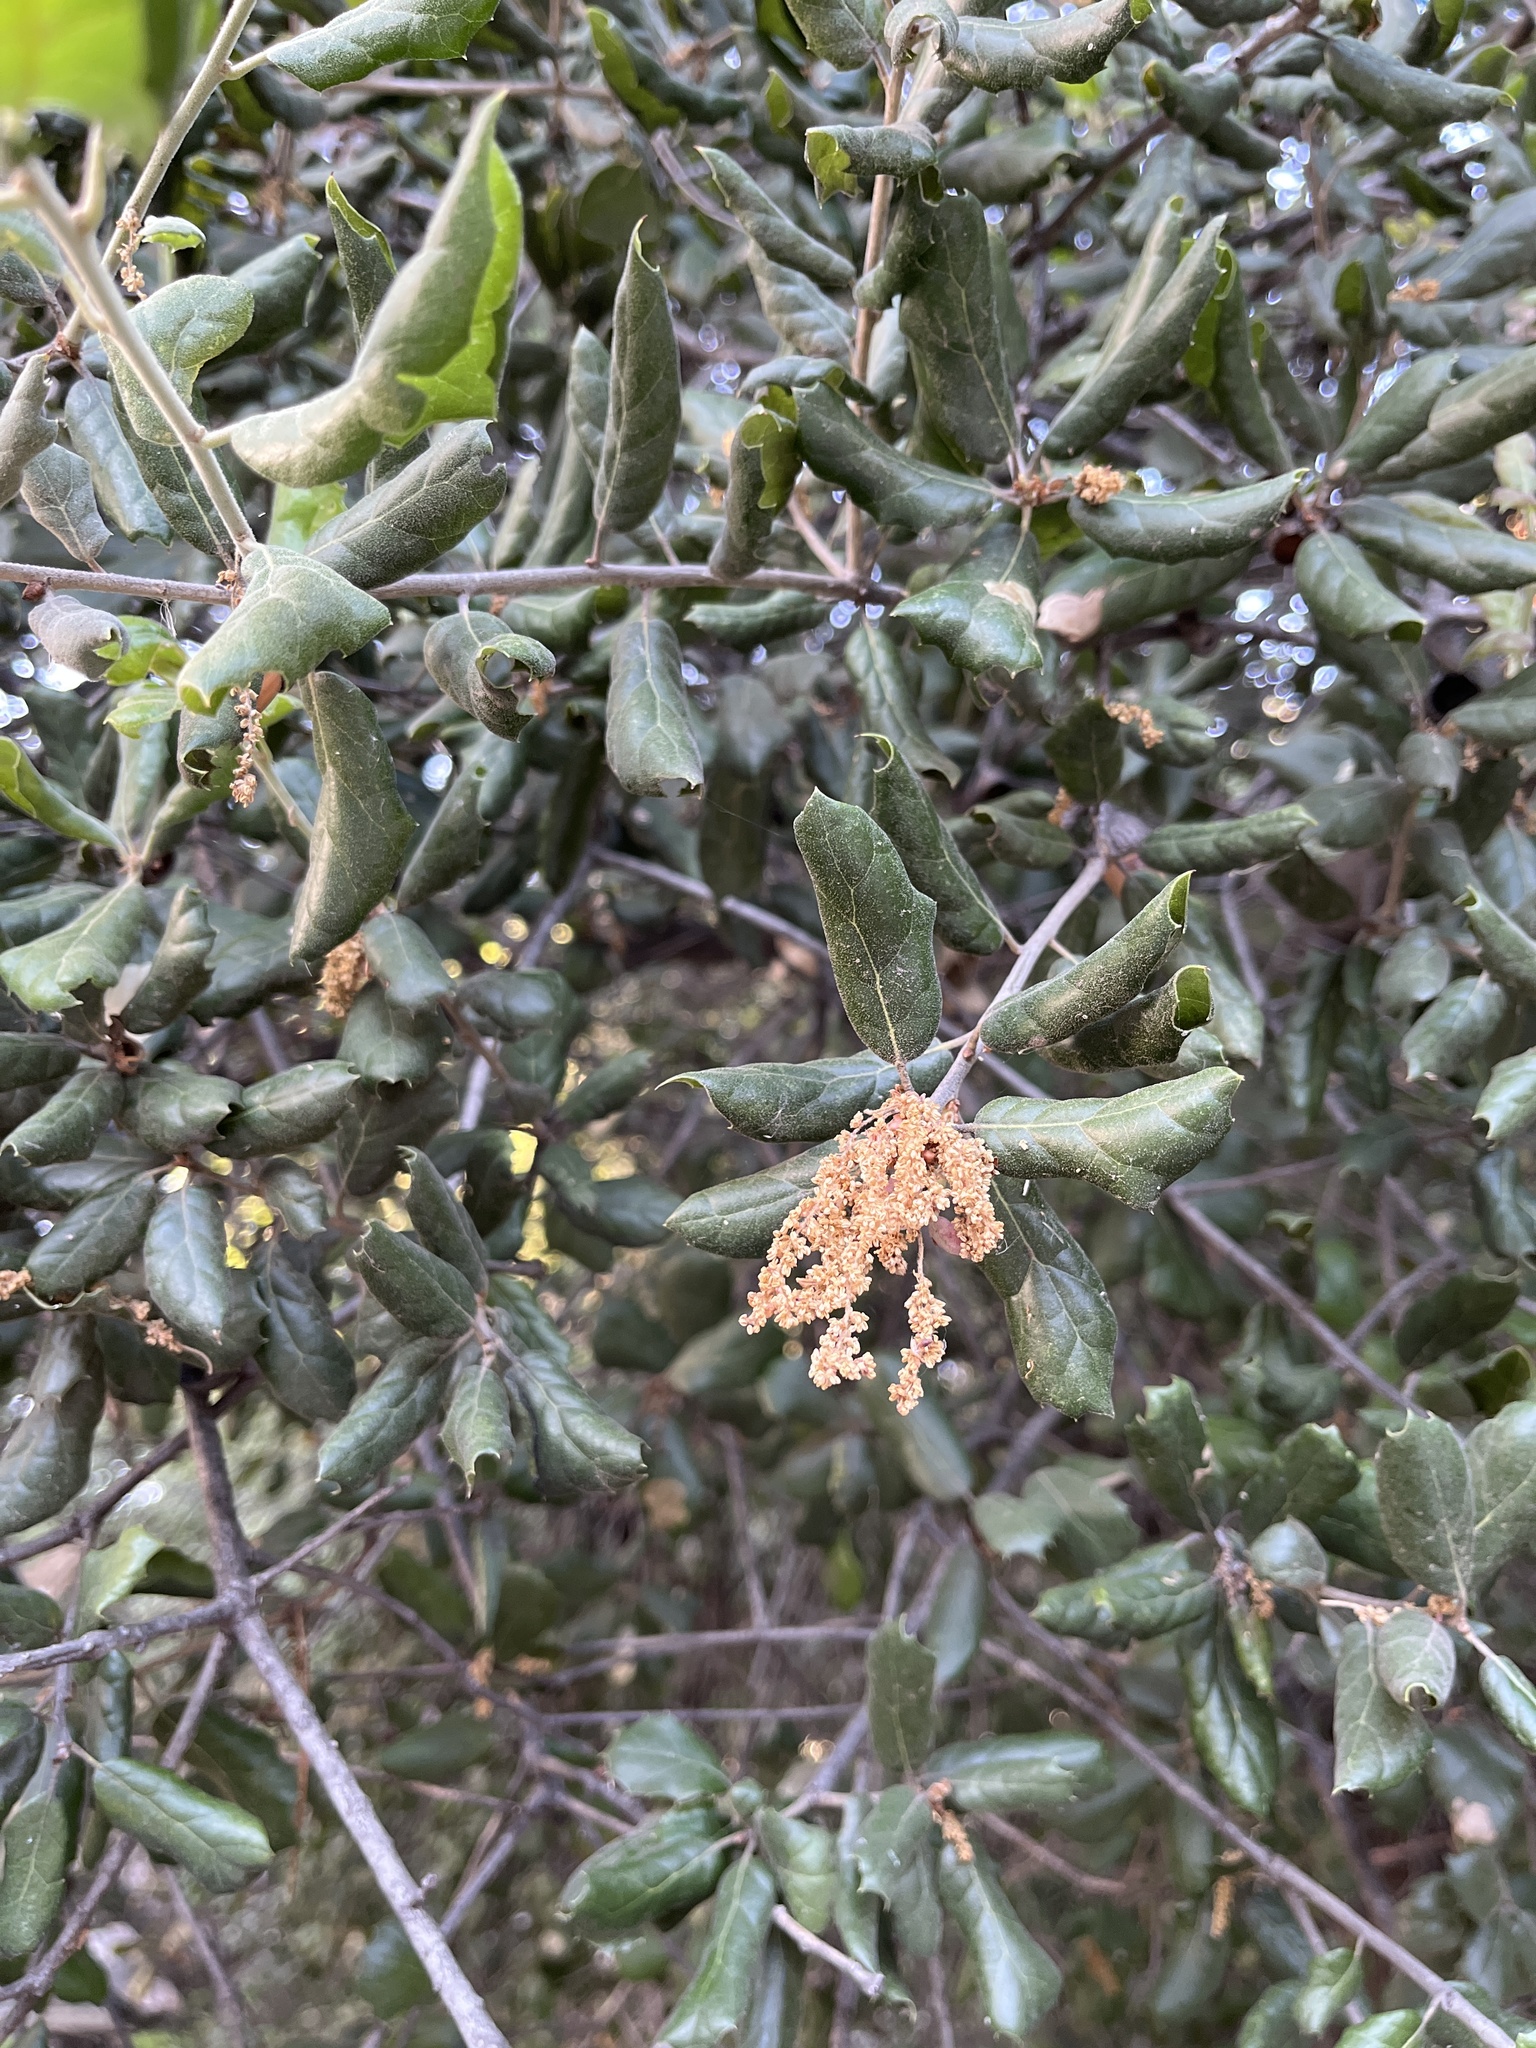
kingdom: Plantae
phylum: Tracheophyta
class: Magnoliopsida
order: Fagales
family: Fagaceae
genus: Quercus
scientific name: Quercus agrifolia
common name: California live oak
